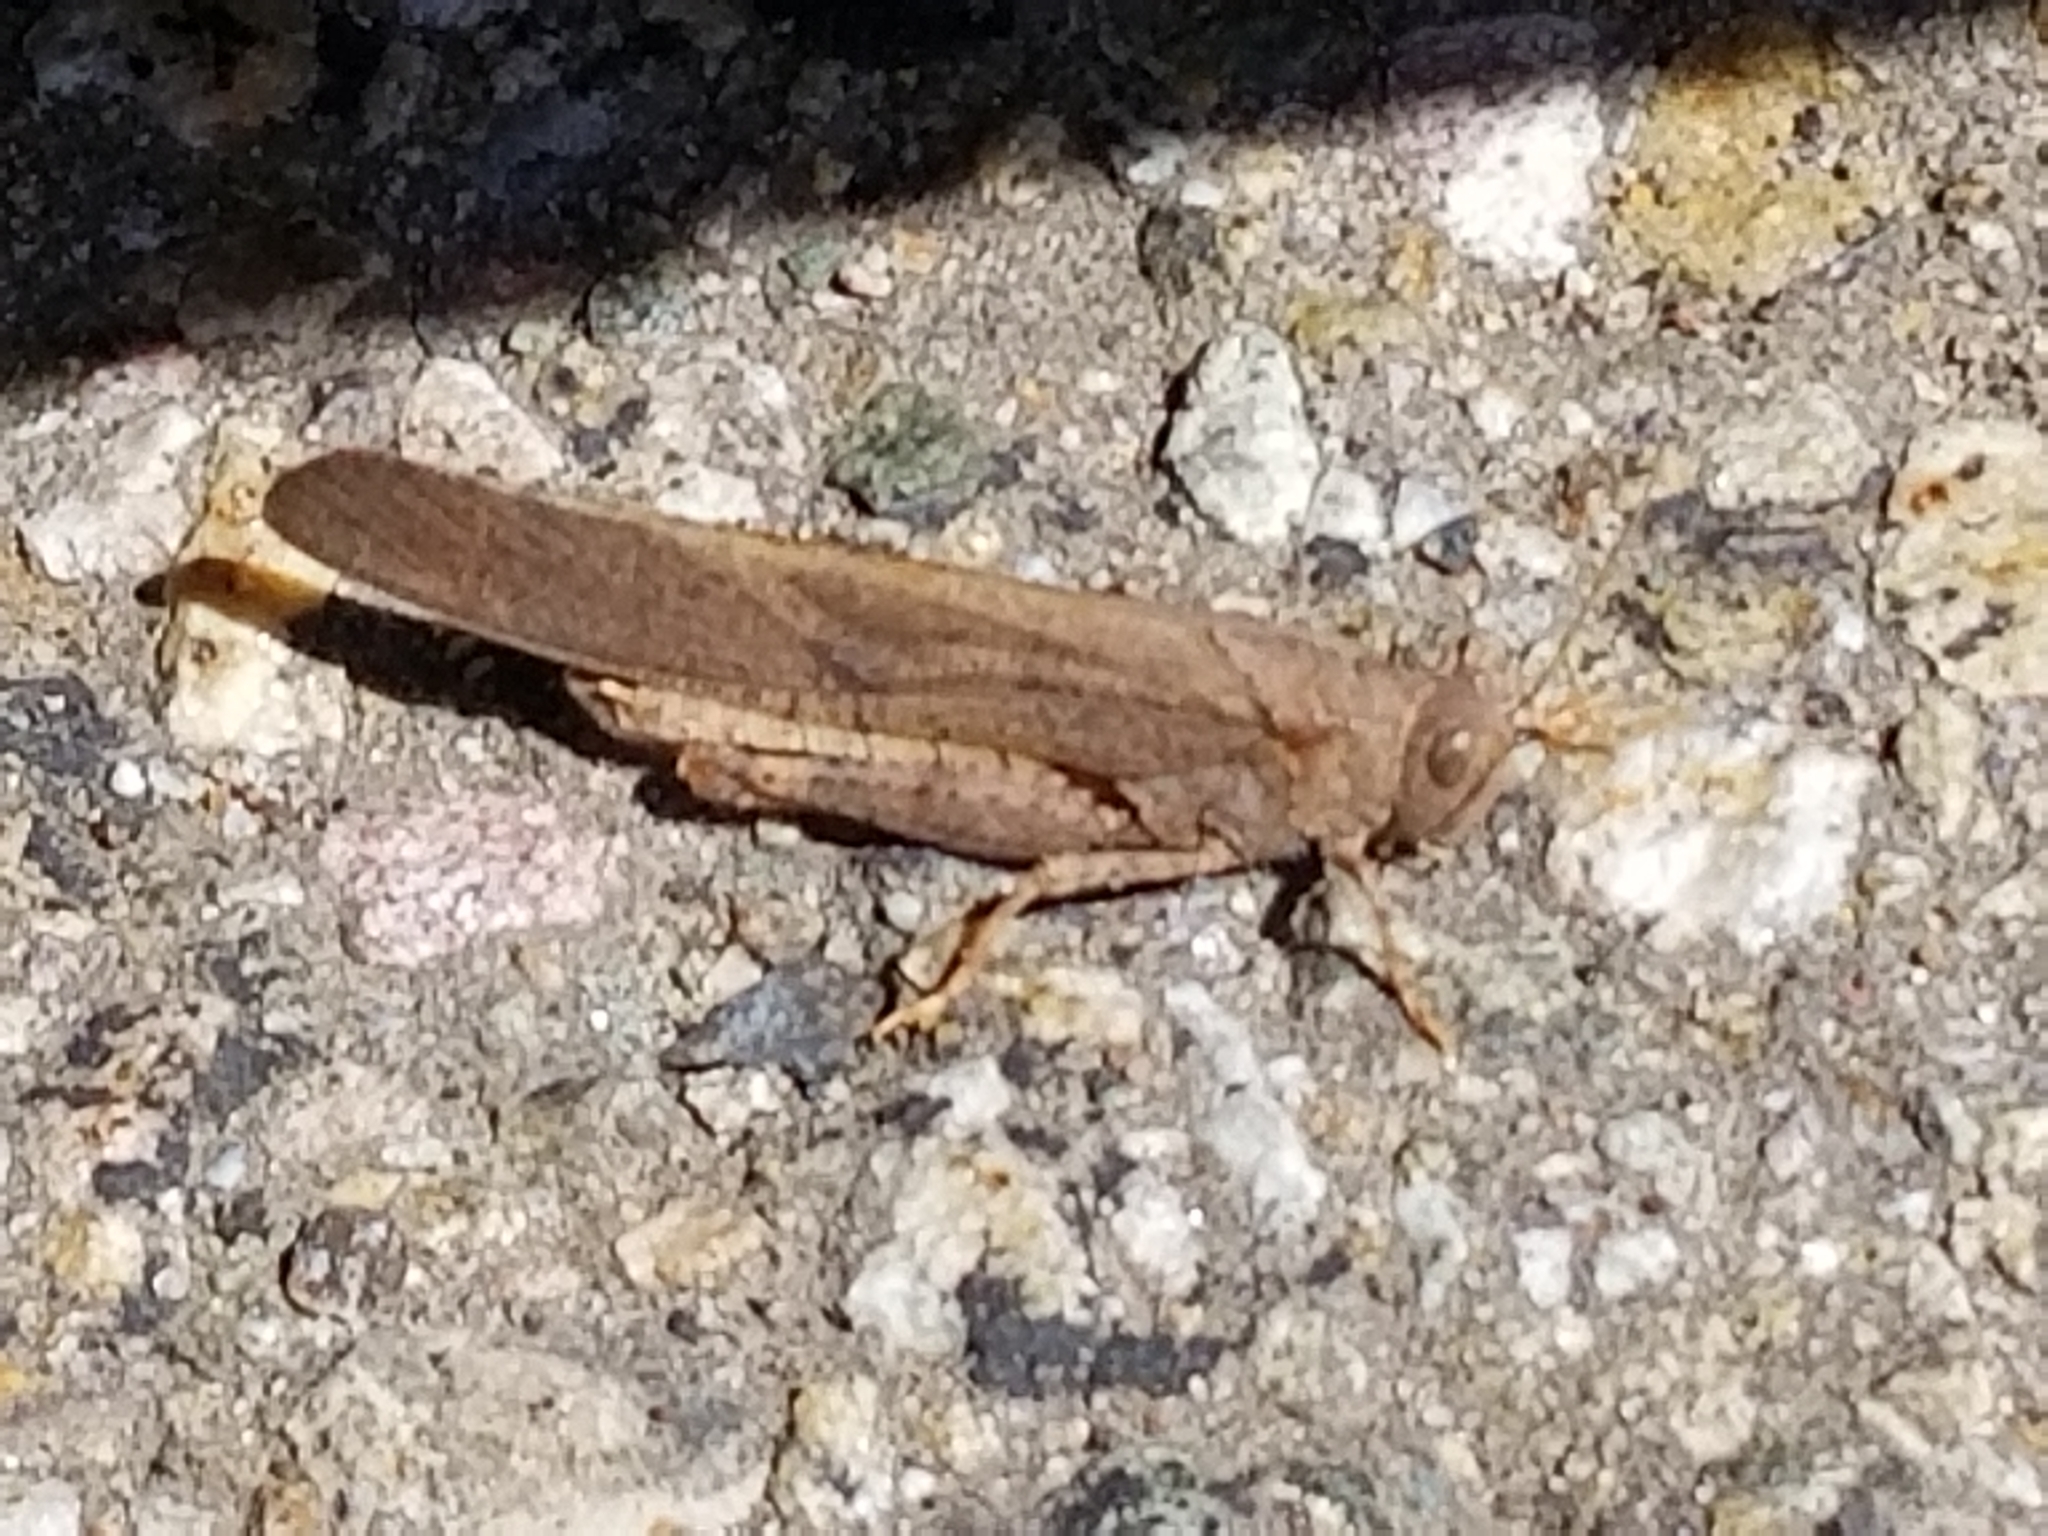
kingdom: Animalia
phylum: Arthropoda
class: Insecta
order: Orthoptera
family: Acrididae
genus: Dissosteira
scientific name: Dissosteira carolina
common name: Carolina grasshopper
